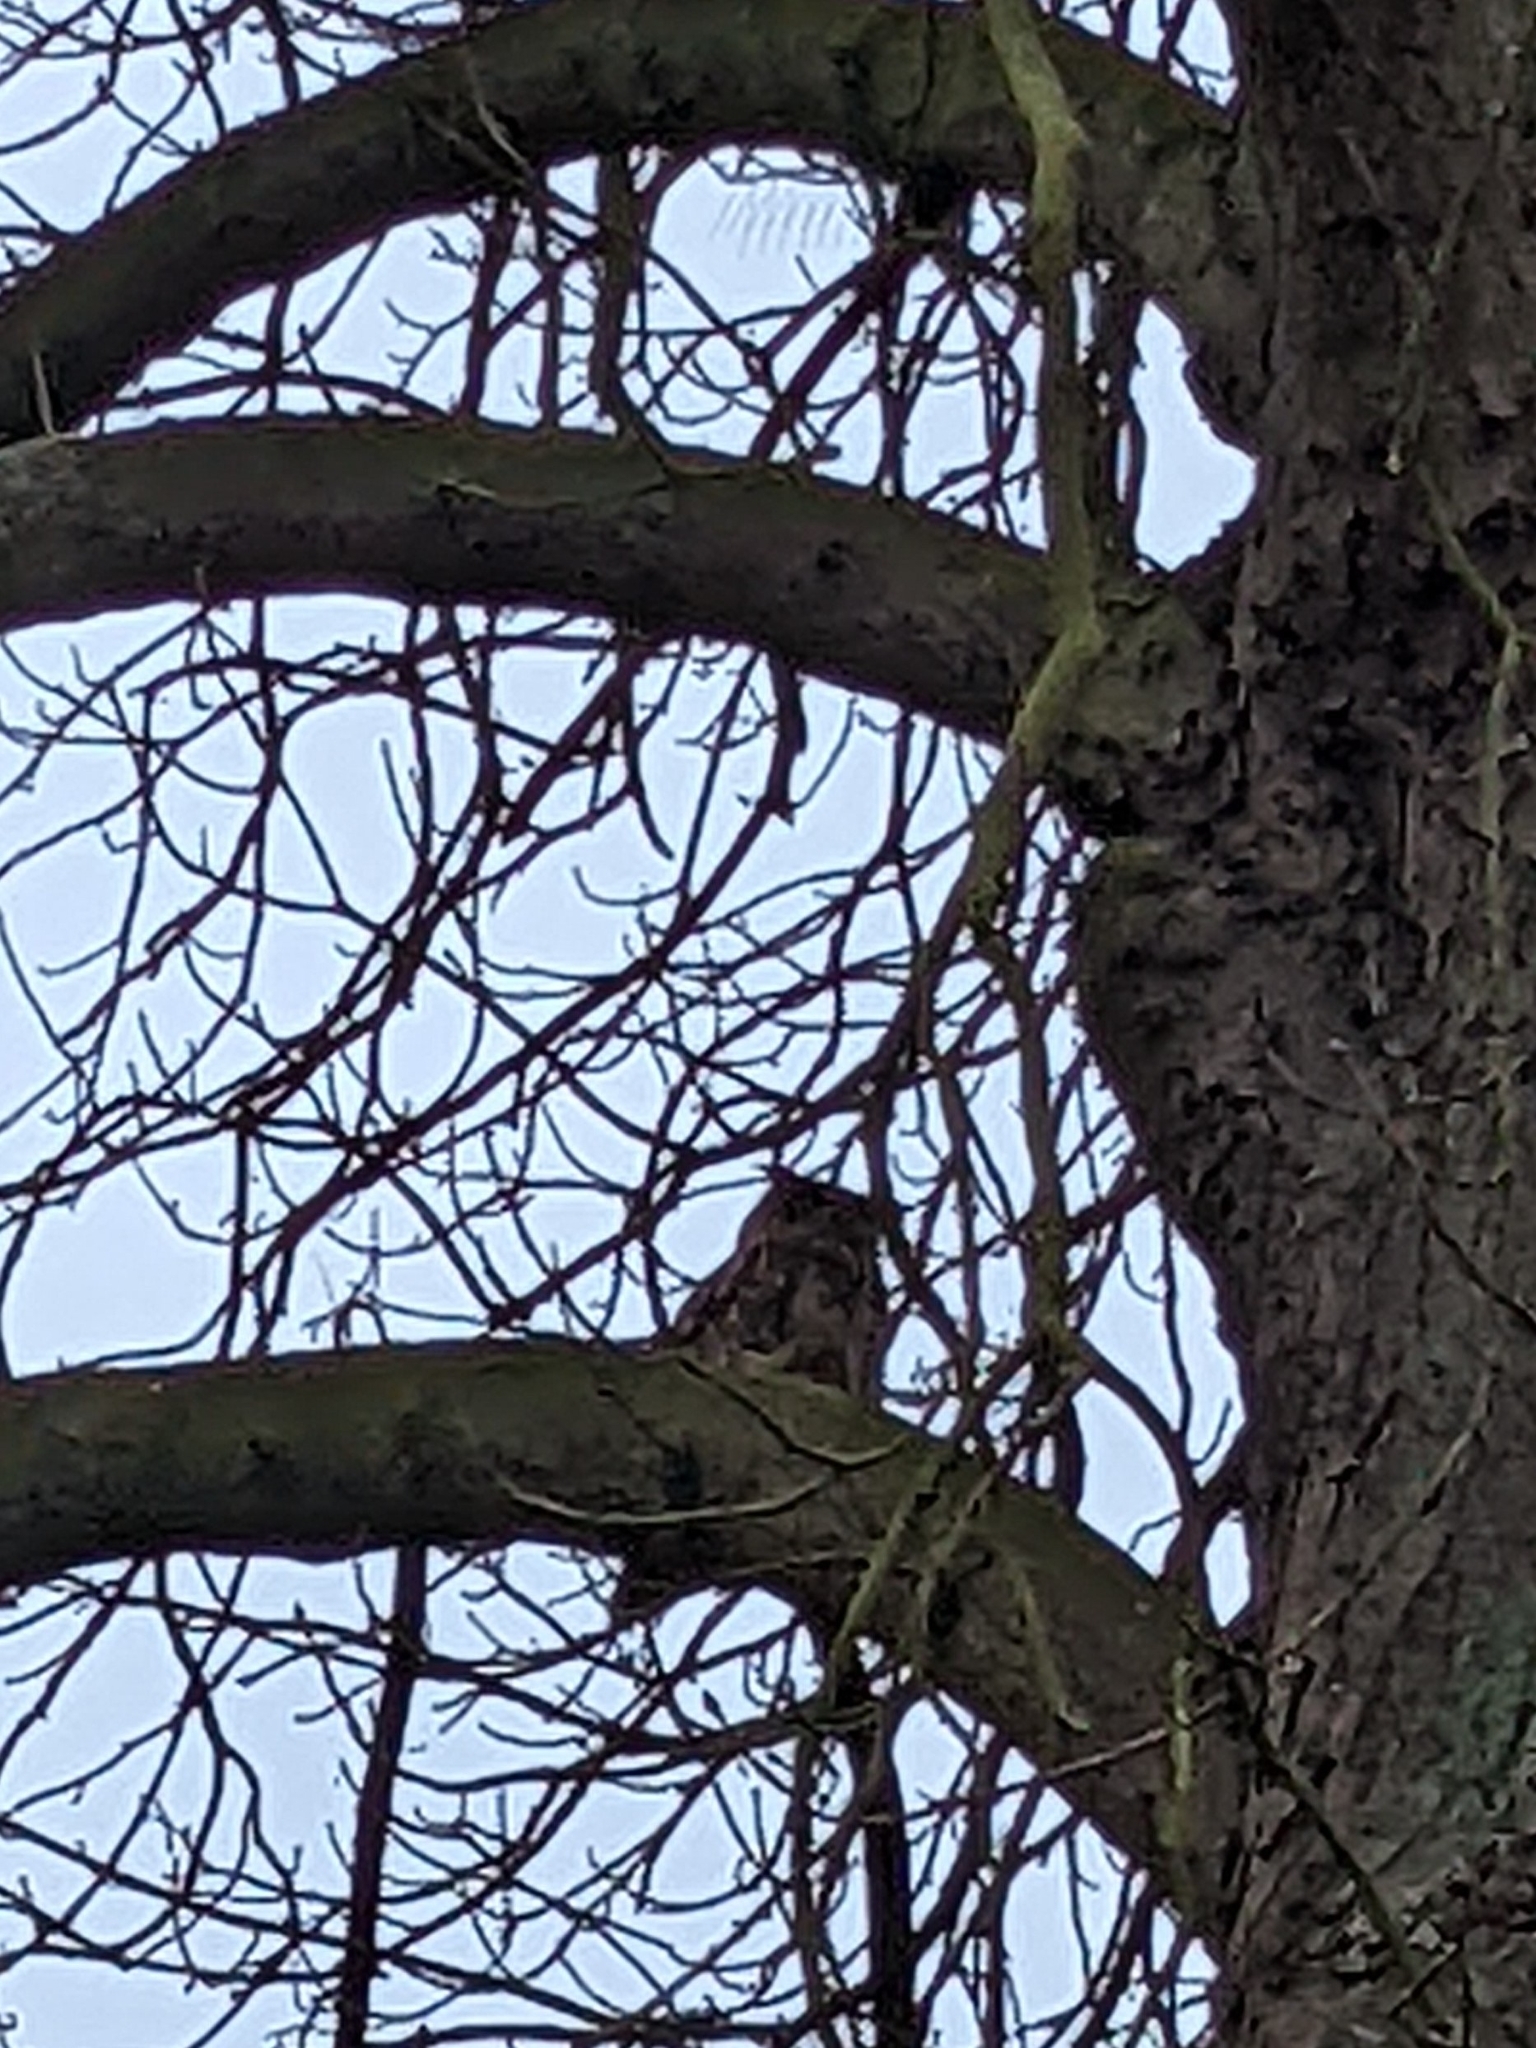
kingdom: Animalia
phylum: Chordata
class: Aves
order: Strigiformes
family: Strigidae
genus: Bubo
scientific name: Bubo bubo
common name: Eurasian eagle-owl
